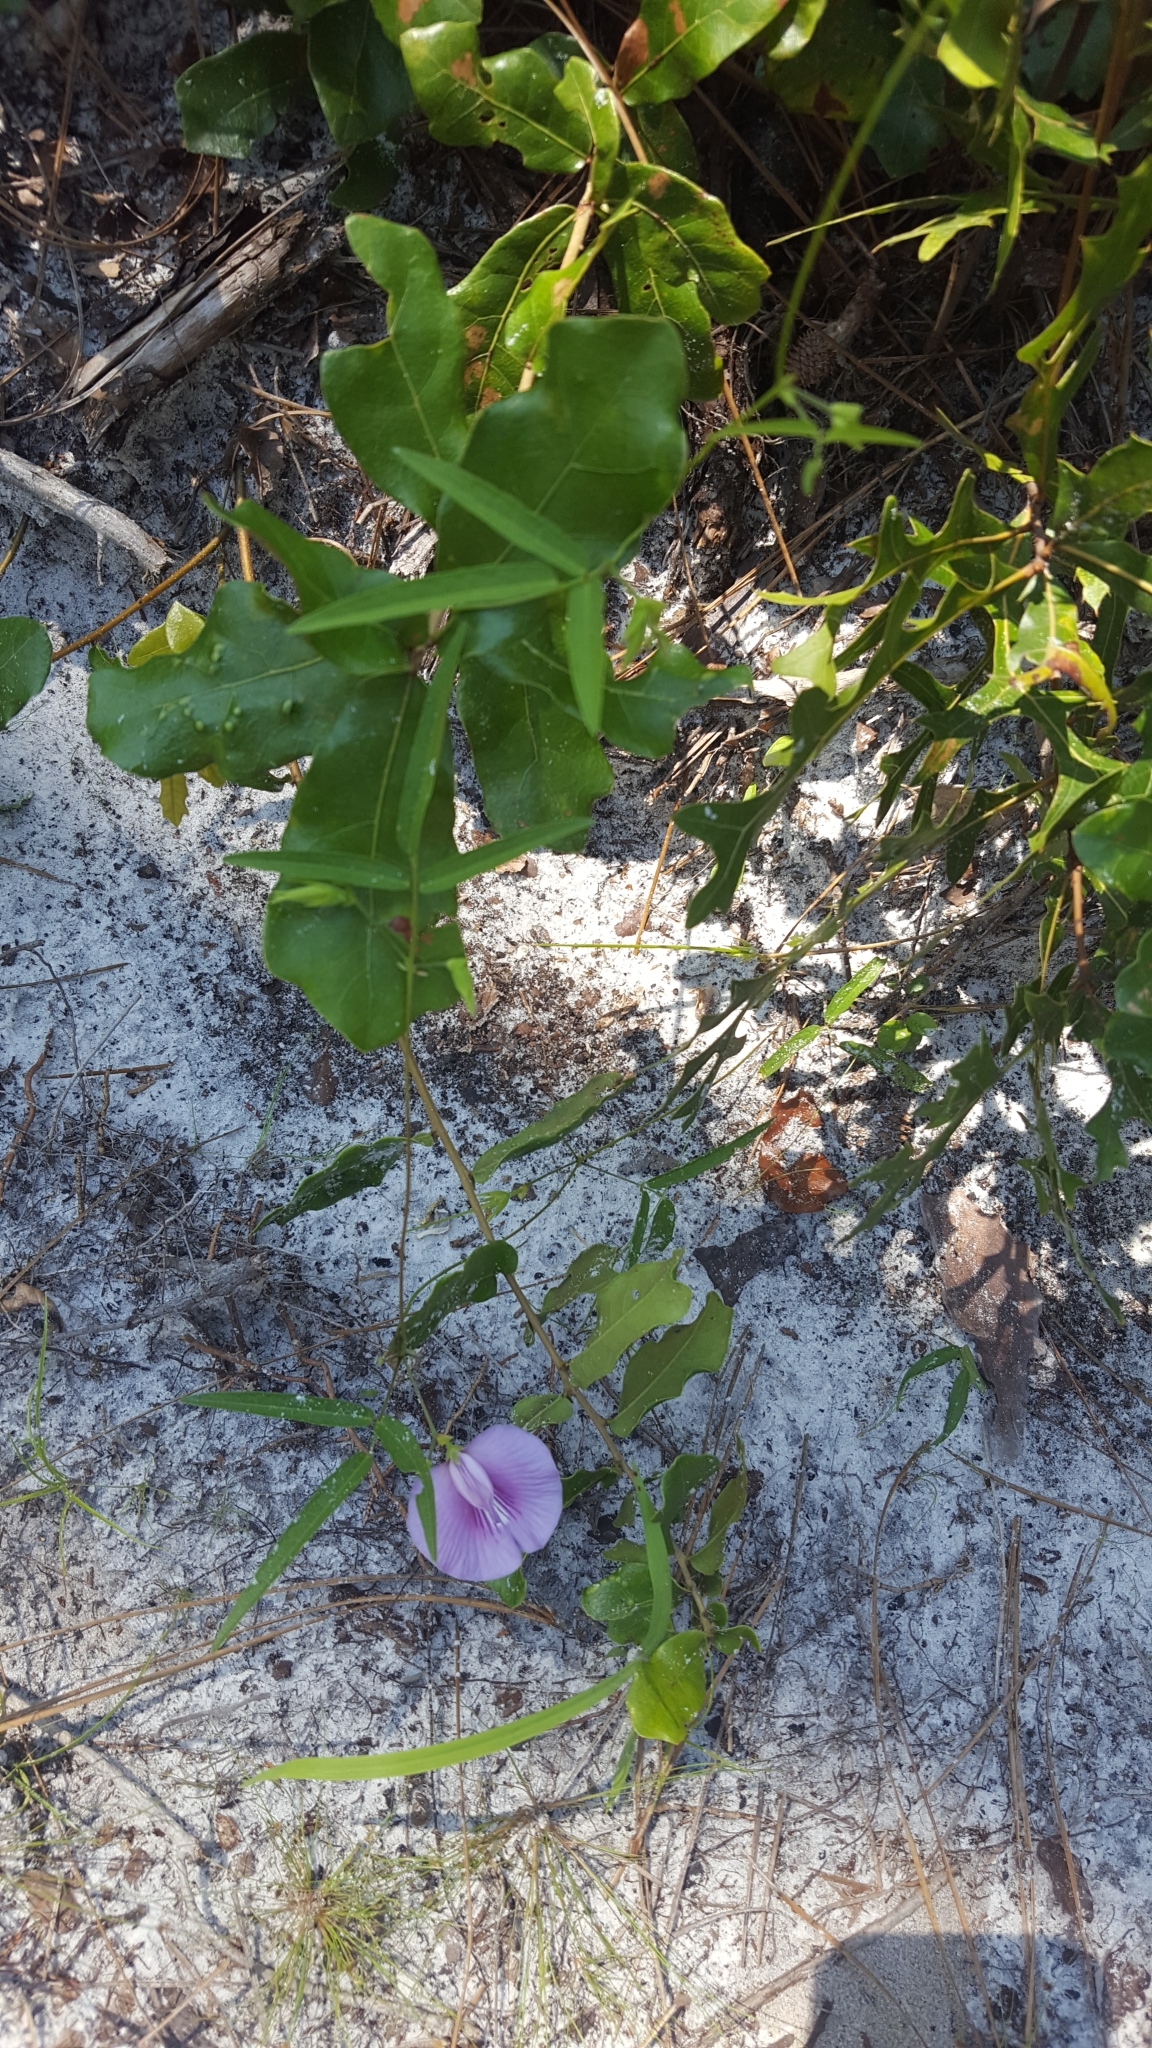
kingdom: Plantae
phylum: Tracheophyta
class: Magnoliopsida
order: Fabales
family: Fabaceae
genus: Centrosema
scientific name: Centrosema virginianum
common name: Butterfly-pea
